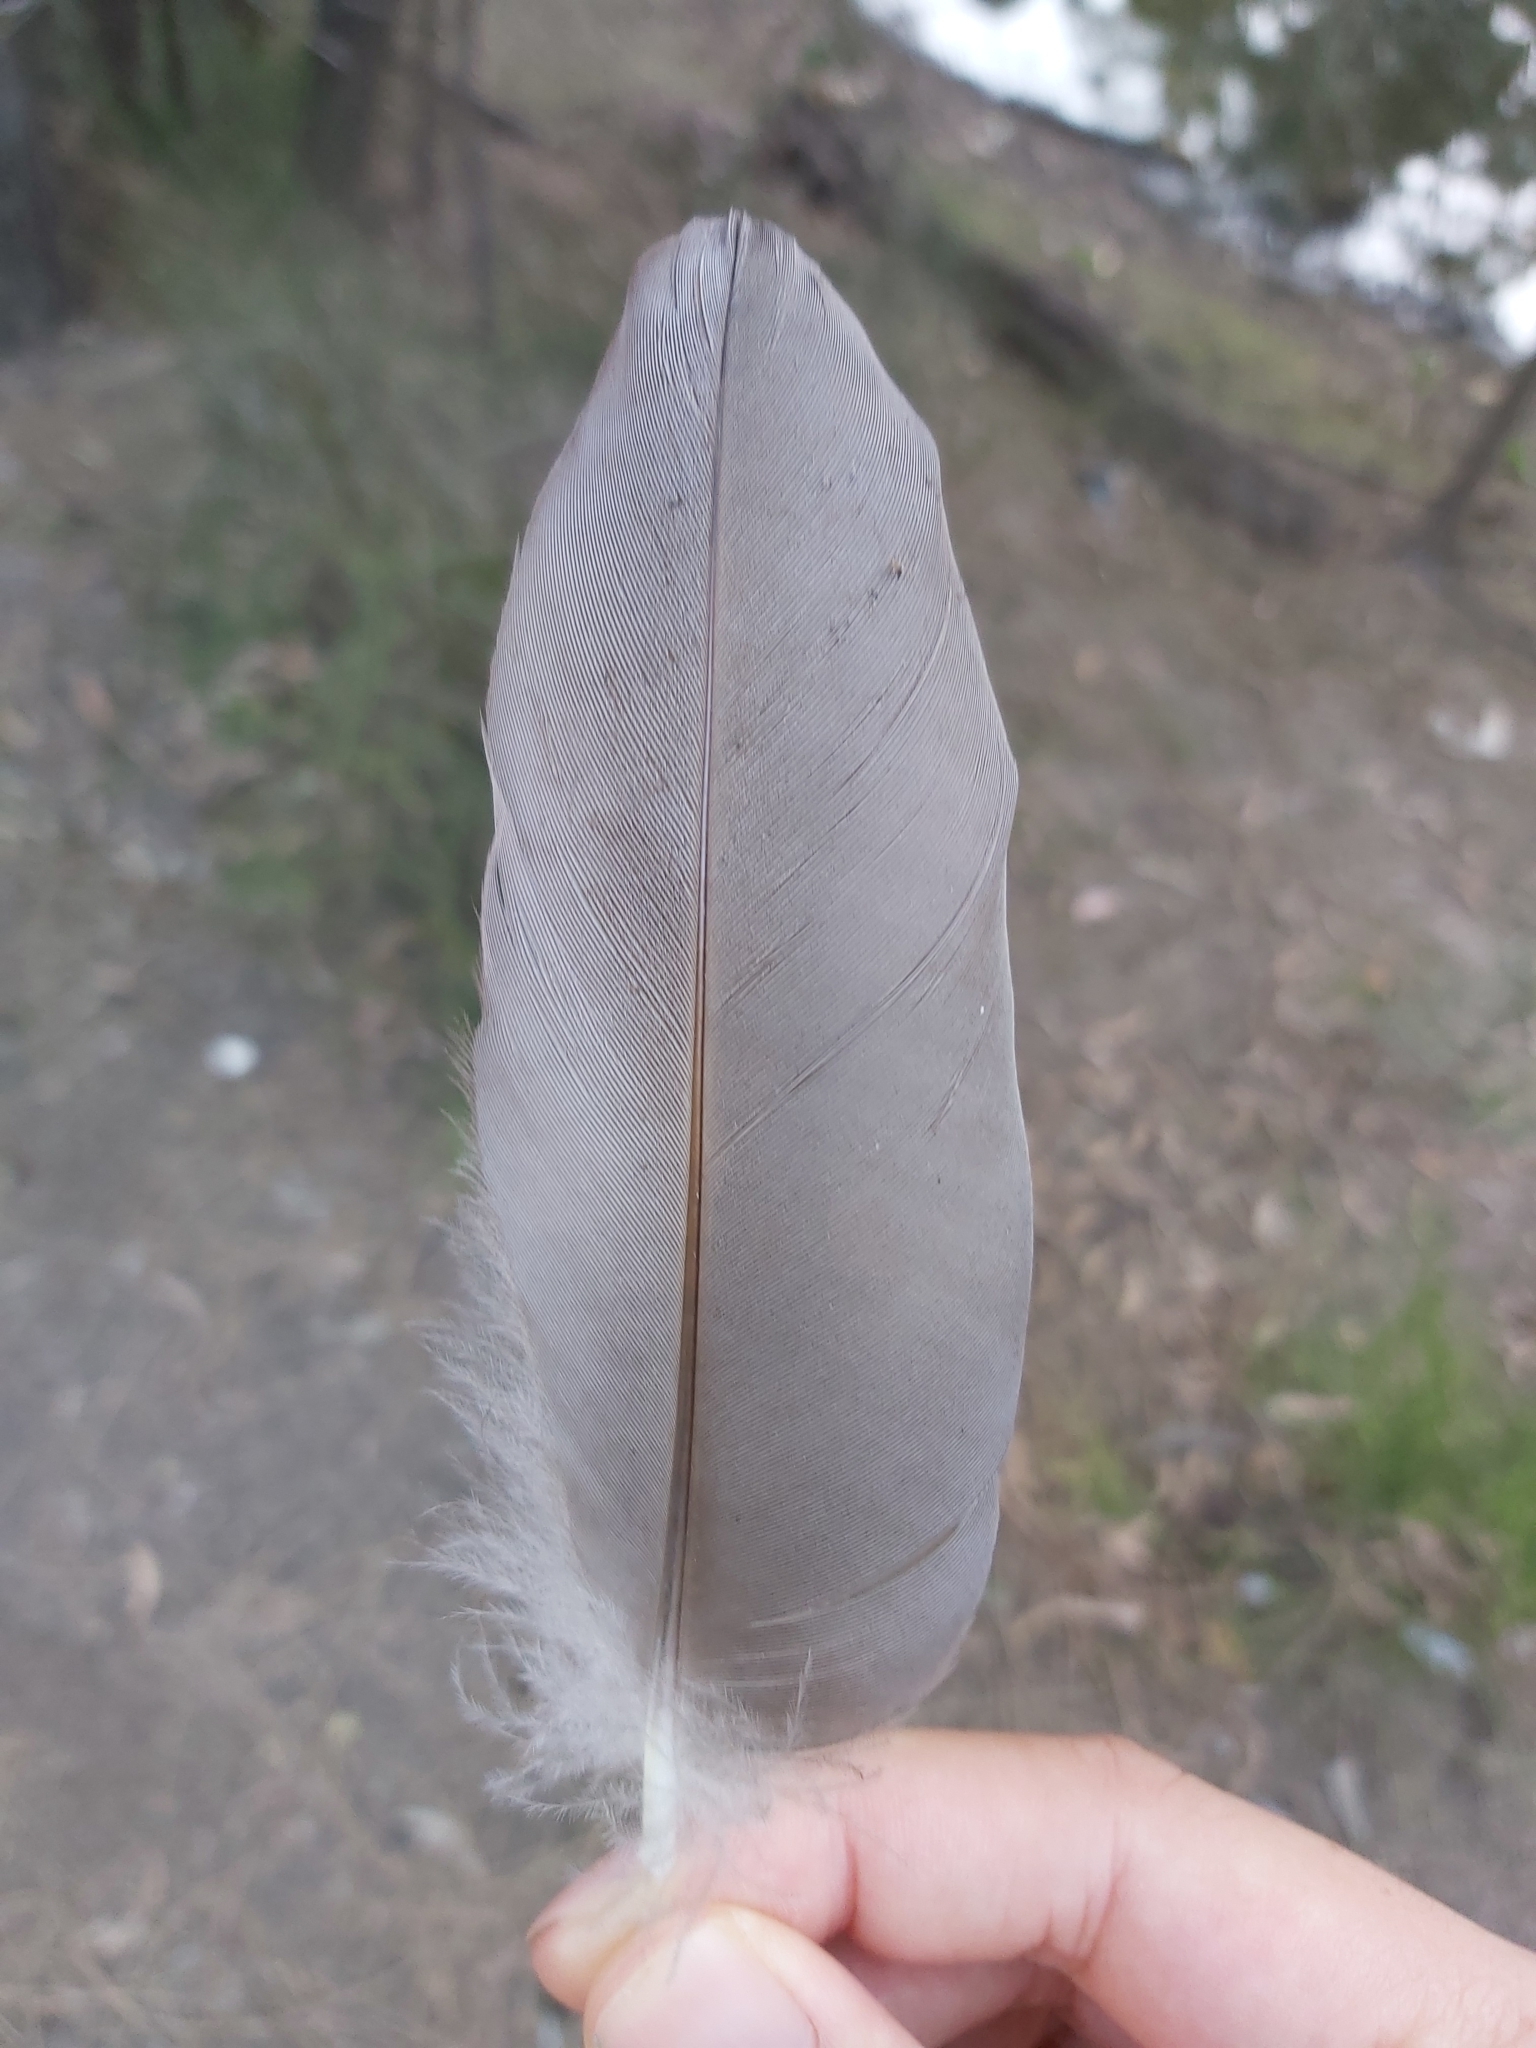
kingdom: Animalia
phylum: Chordata
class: Aves
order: Anseriformes
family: Anatidae
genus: Chenonetta
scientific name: Chenonetta jubata
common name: Maned duck
